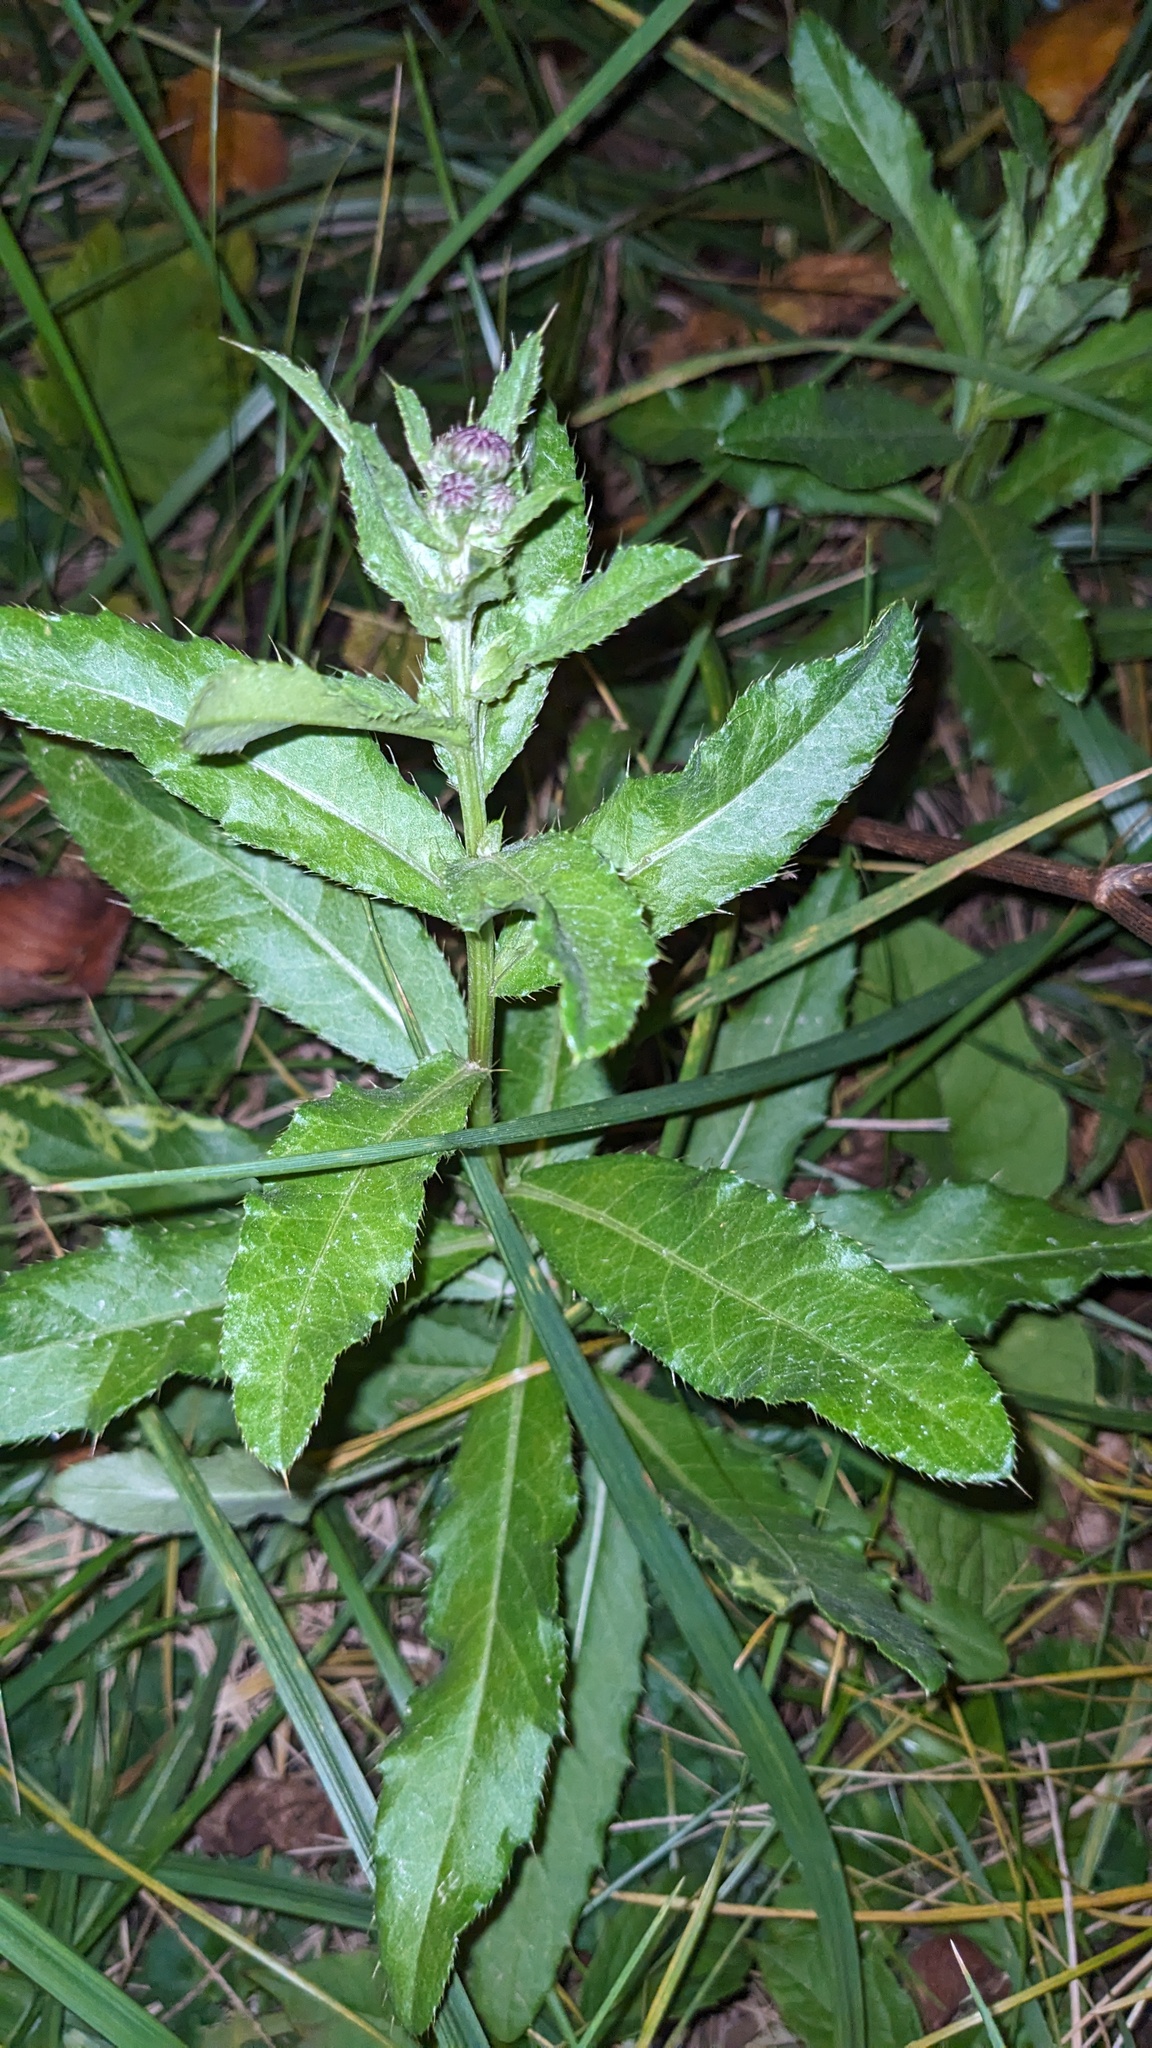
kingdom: Plantae
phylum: Tracheophyta
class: Magnoliopsida
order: Asterales
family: Asteraceae
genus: Cirsium
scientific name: Cirsium arvense
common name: Creeping thistle
